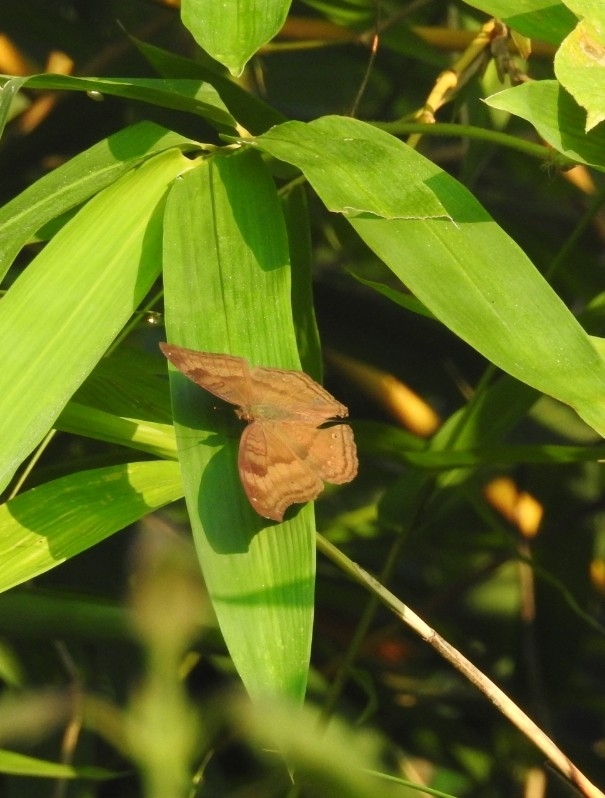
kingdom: Animalia
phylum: Arthropoda
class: Insecta
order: Lepidoptera
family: Nymphalidae
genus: Junonia
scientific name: Junonia iphita
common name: Chocolate pansy
